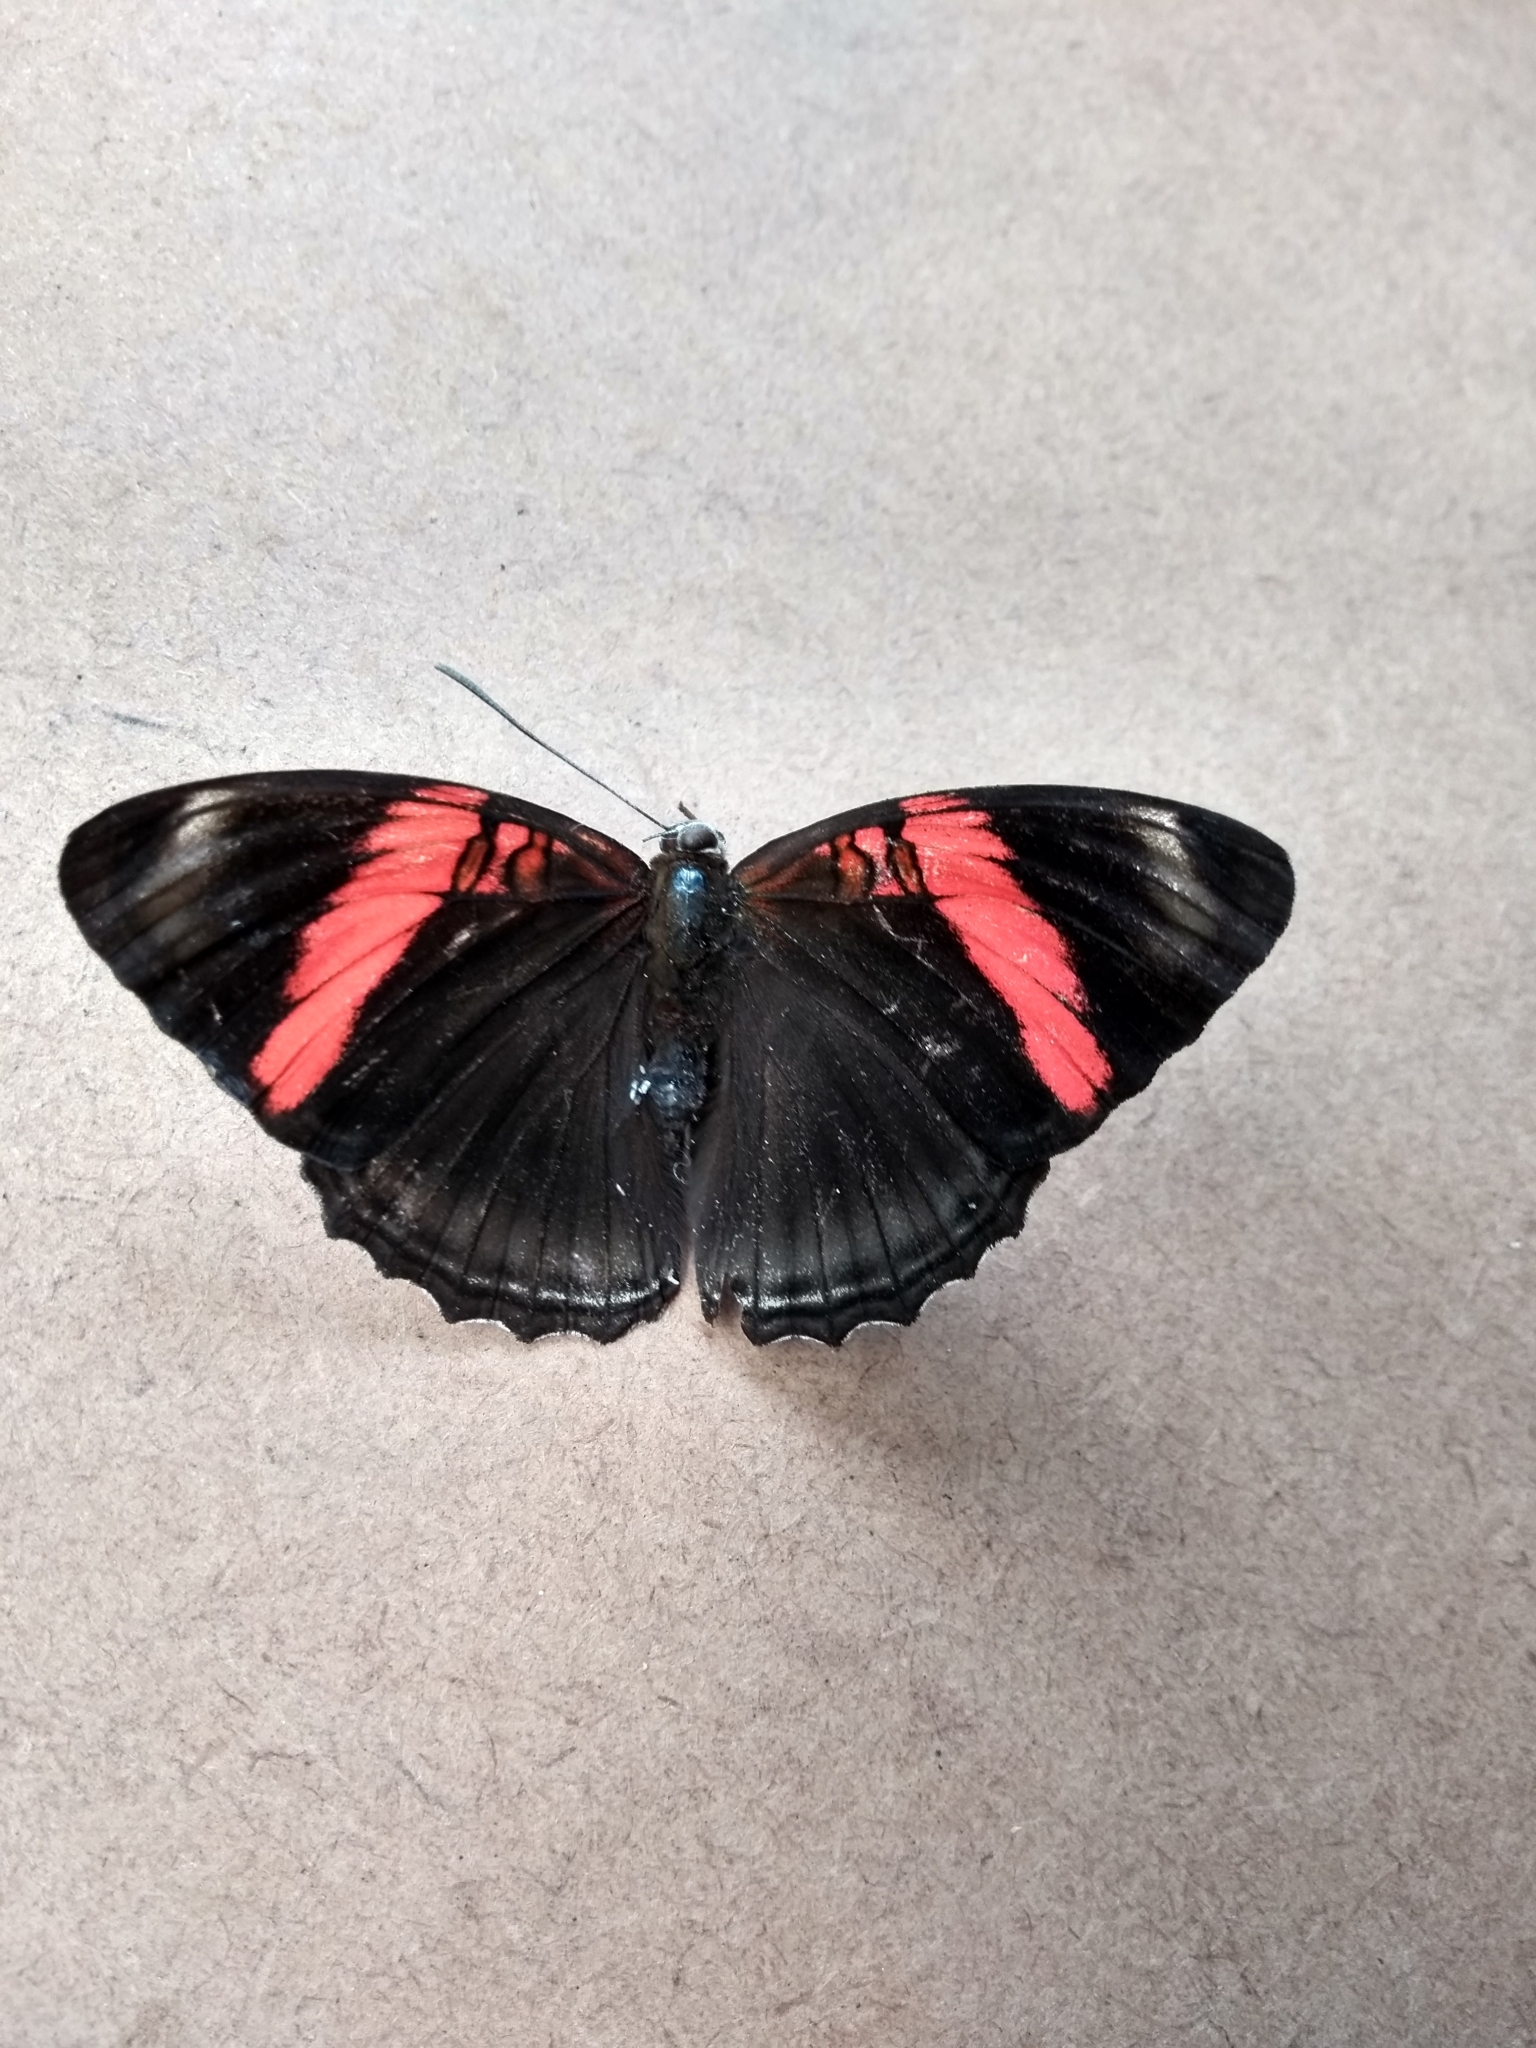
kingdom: Animalia
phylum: Arthropoda
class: Insecta
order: Lepidoptera
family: Nymphalidae
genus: Limenitis
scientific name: Limenitis isis
